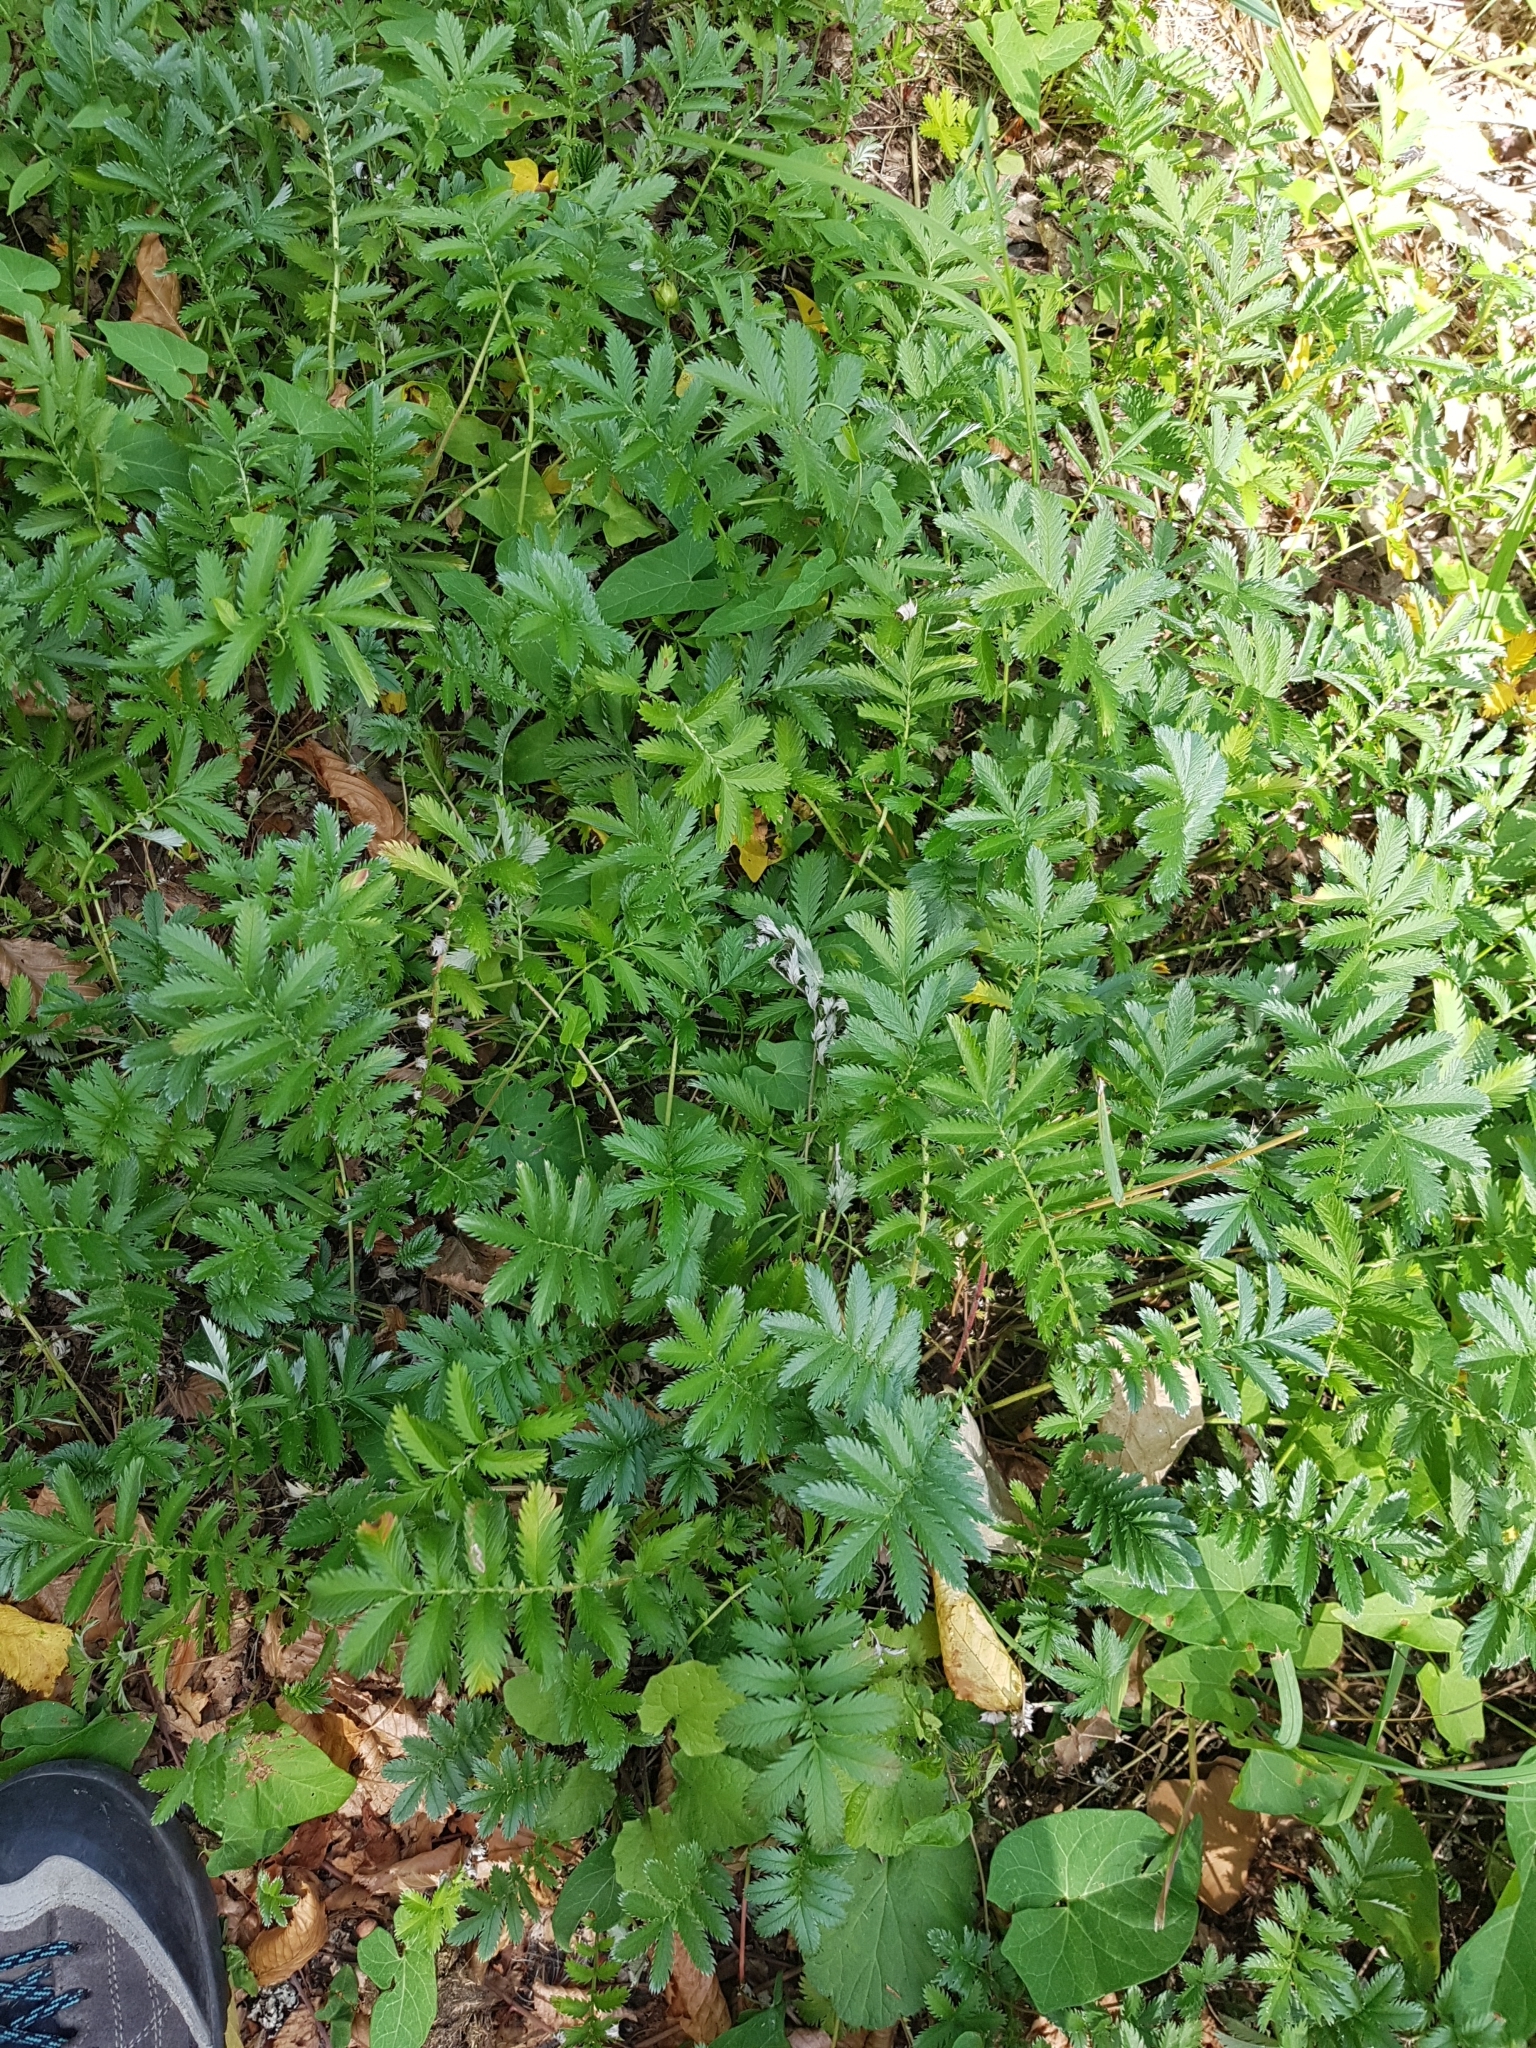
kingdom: Plantae
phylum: Tracheophyta
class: Magnoliopsida
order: Rosales
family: Rosaceae
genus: Argentina
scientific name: Argentina anserina
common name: Common silverweed
